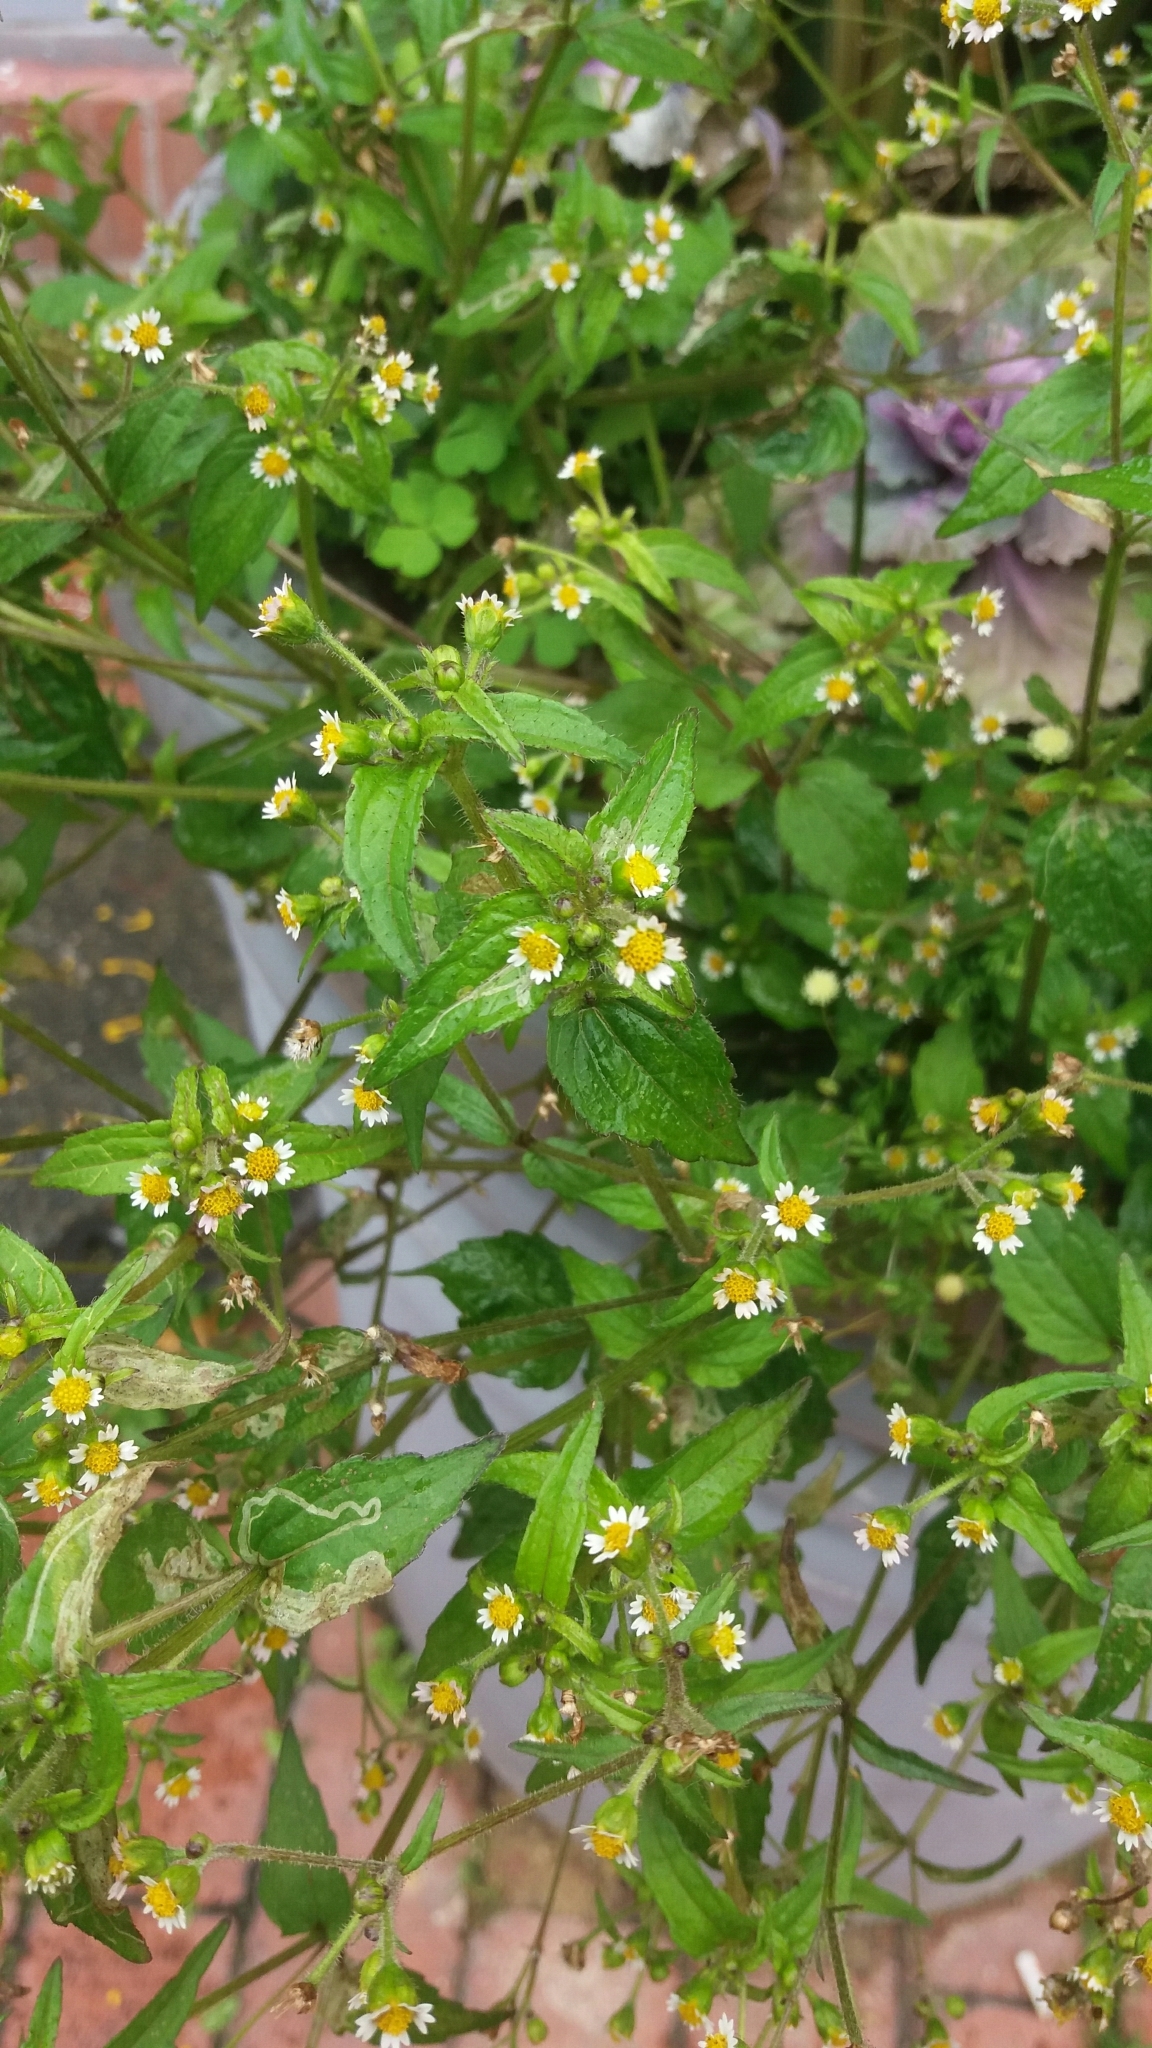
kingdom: Plantae
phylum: Tracheophyta
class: Magnoliopsida
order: Asterales
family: Asteraceae
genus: Galinsoga
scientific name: Galinsoga quadriradiata
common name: Shaggy soldier
